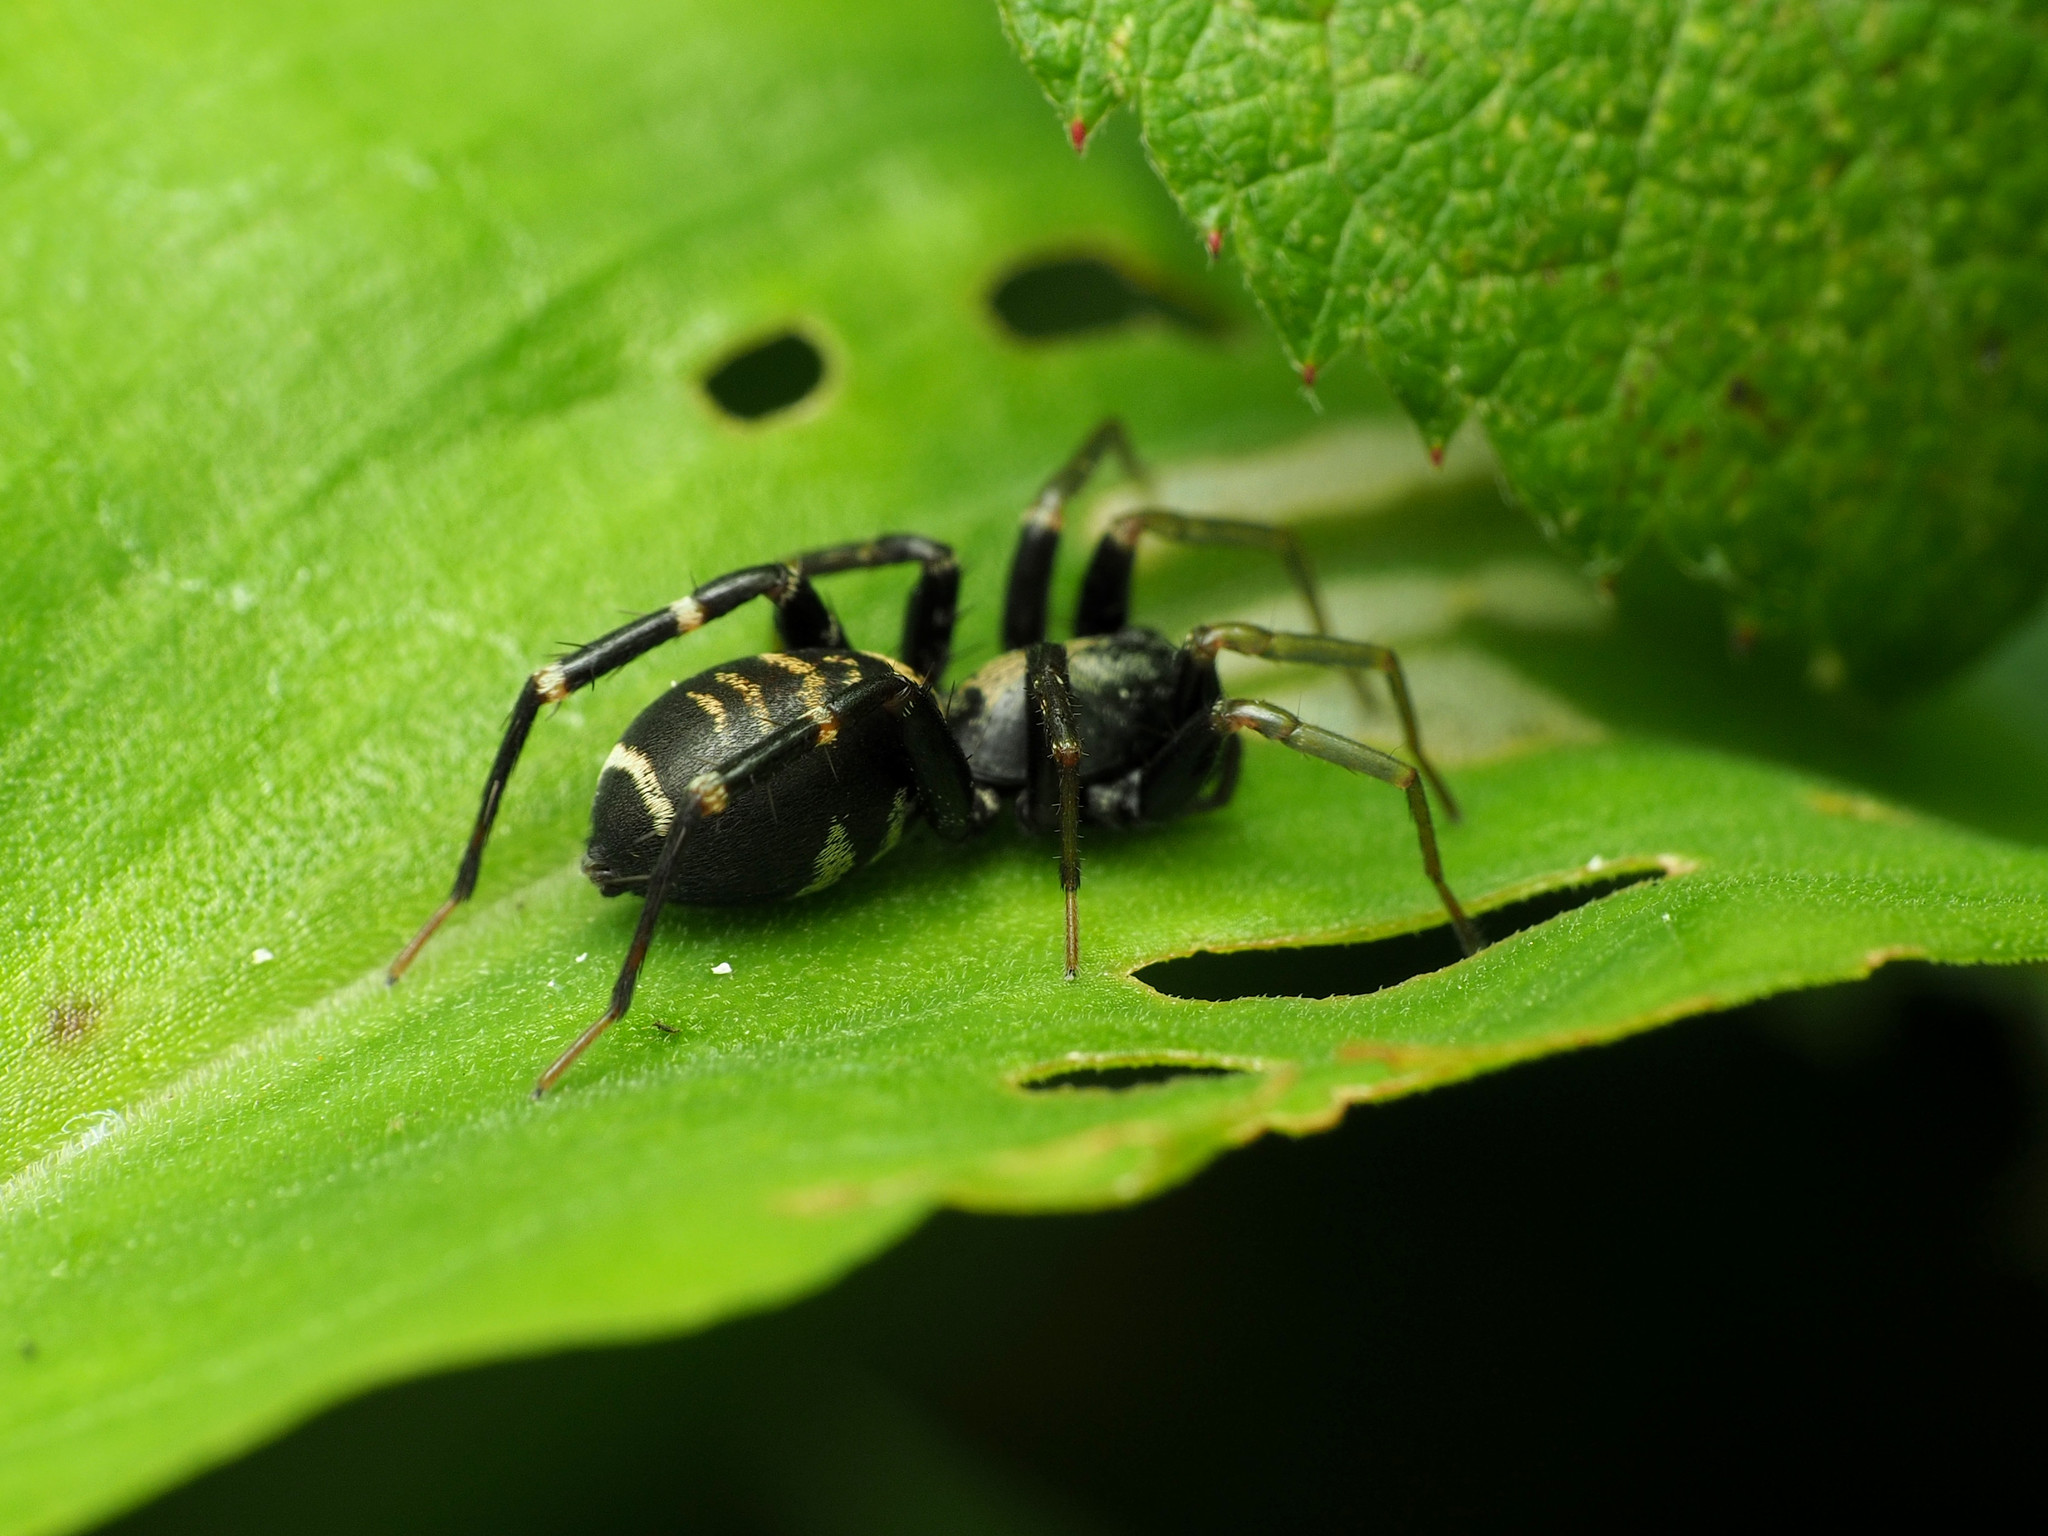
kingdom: Animalia
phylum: Arthropoda
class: Arachnida
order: Araneae
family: Corinnidae
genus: Castianeira
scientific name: Castianeira
